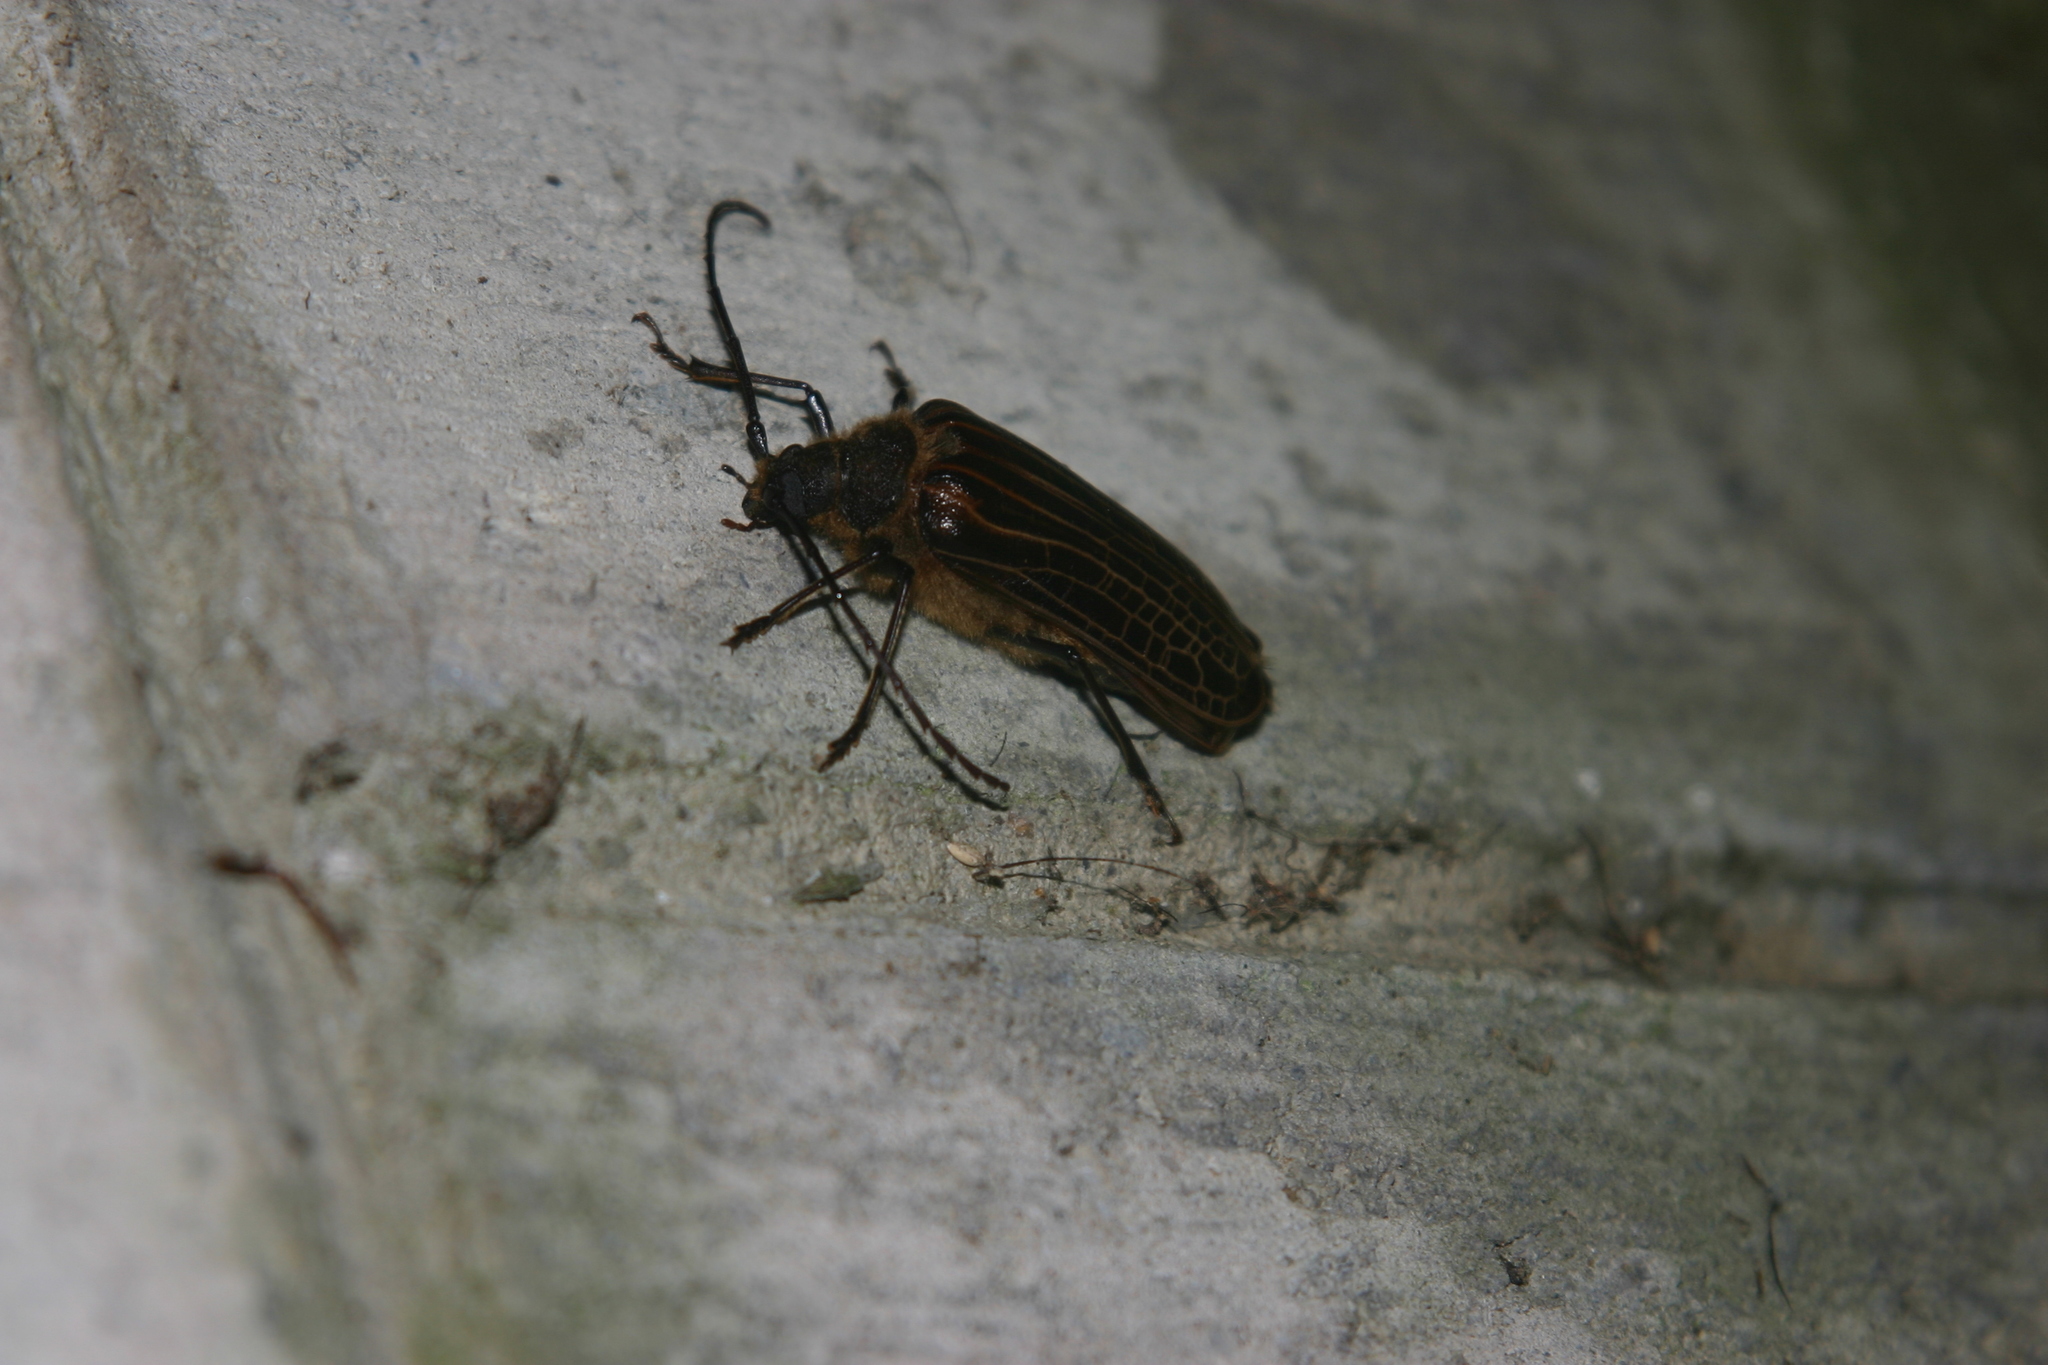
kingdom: Animalia
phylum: Arthropoda
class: Insecta
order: Coleoptera
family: Cerambycidae
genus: Prionoplus
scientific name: Prionoplus reticularis
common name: Huhu beetle
